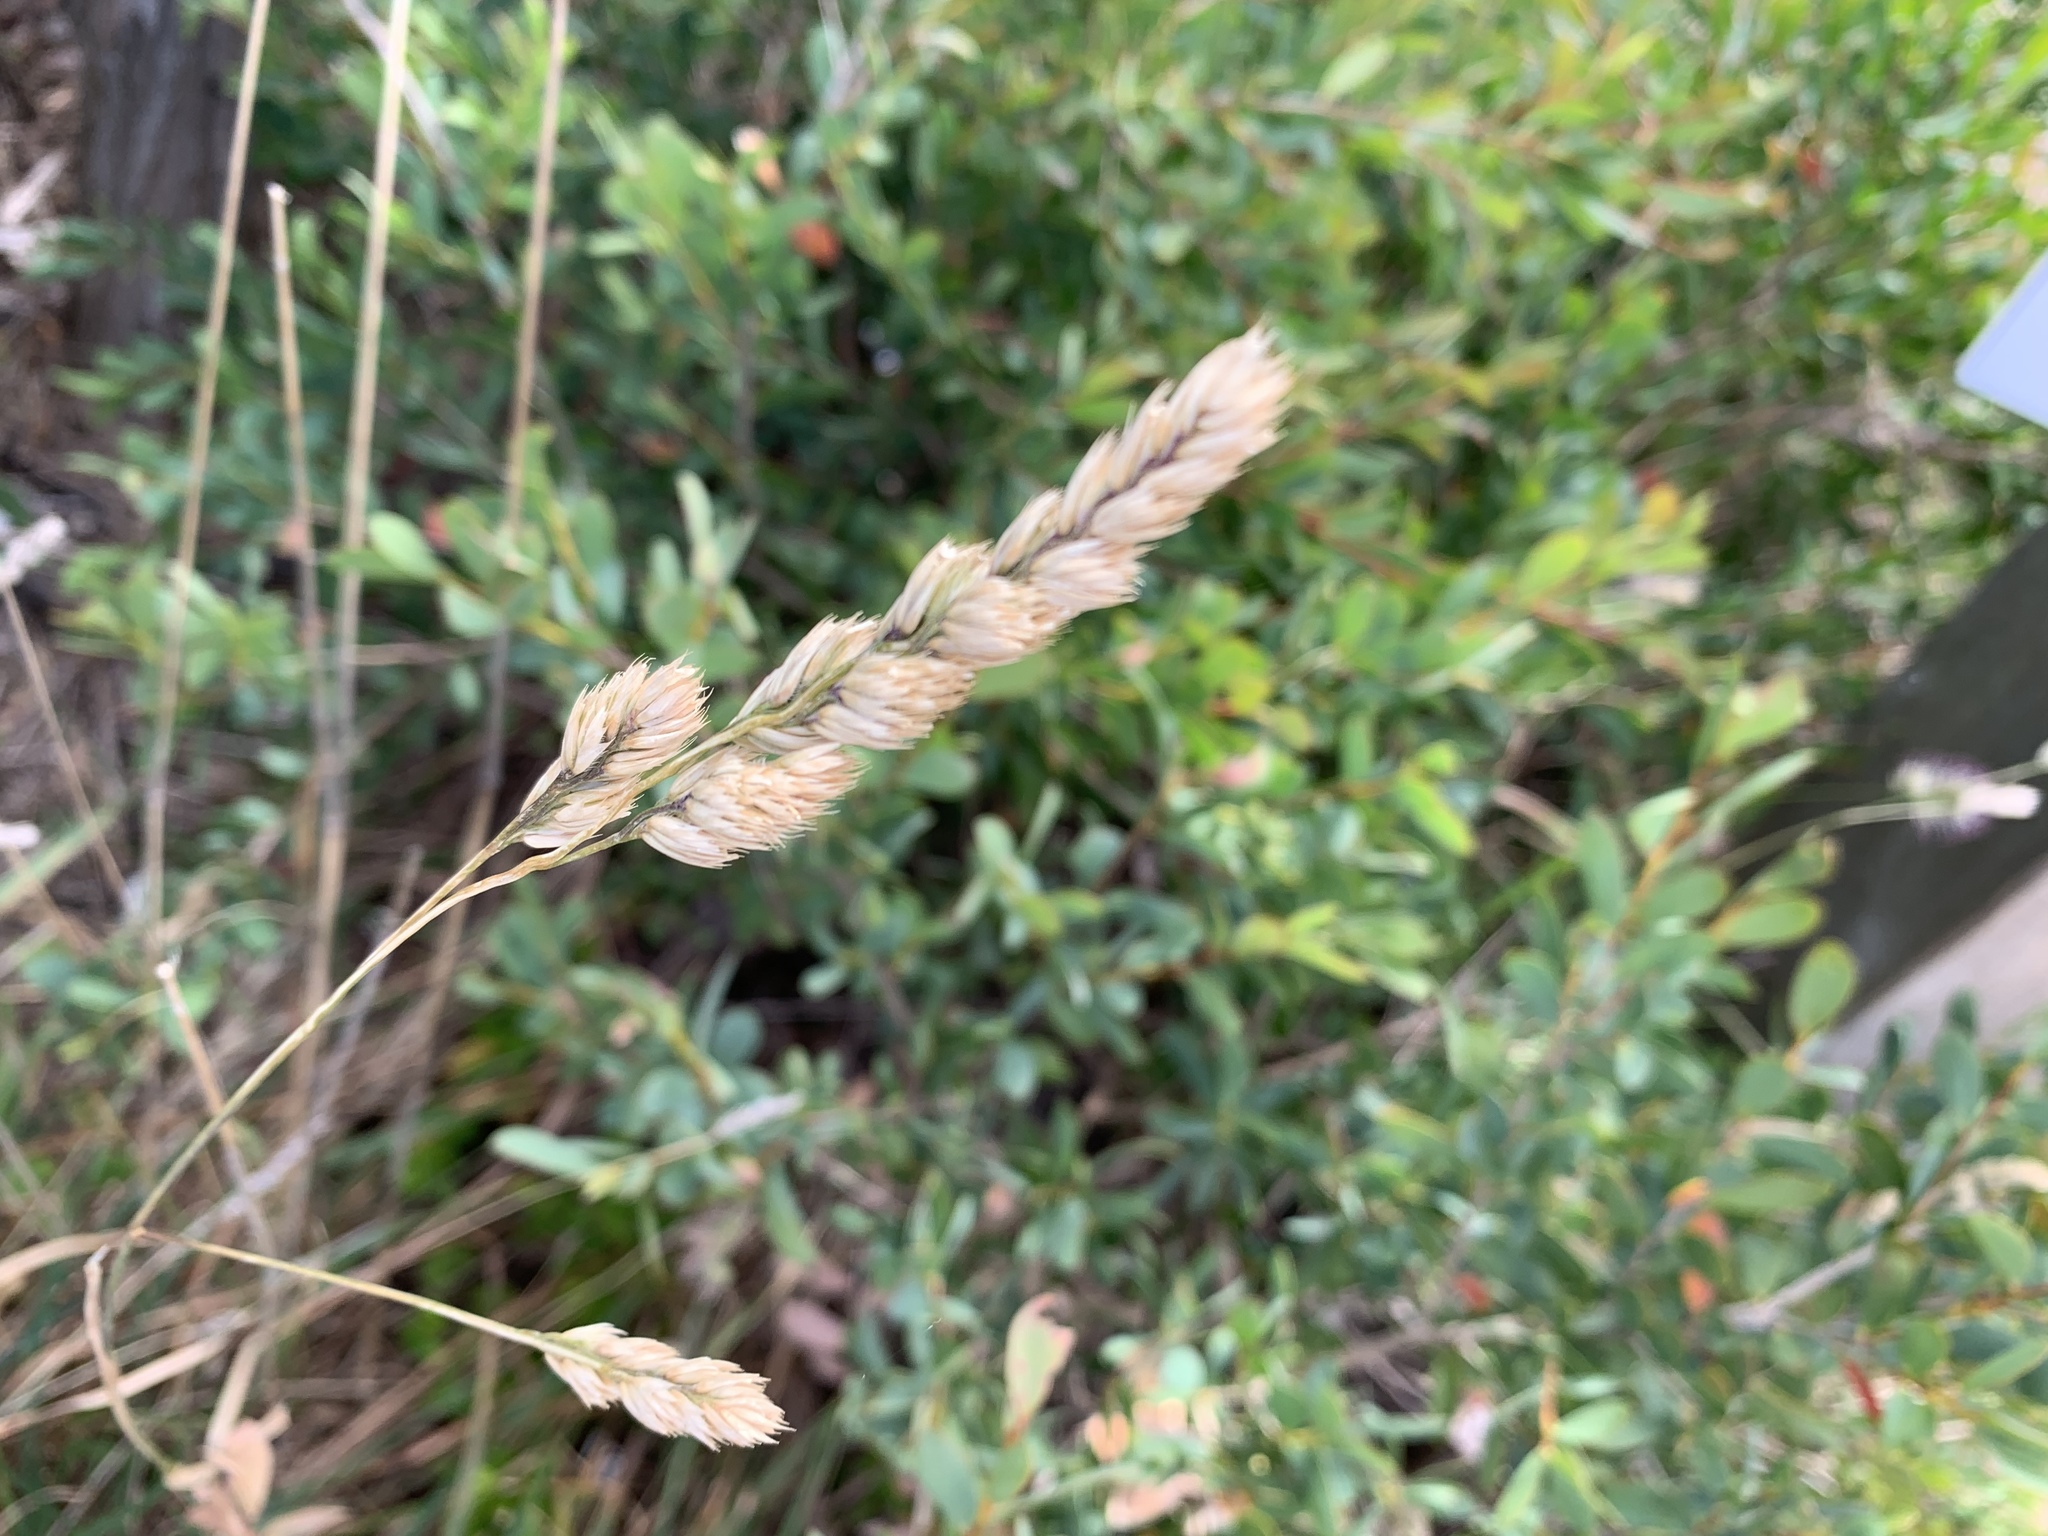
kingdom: Plantae
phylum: Tracheophyta
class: Liliopsida
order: Poales
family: Poaceae
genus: Dactylis
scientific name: Dactylis glomerata
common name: Orchardgrass
